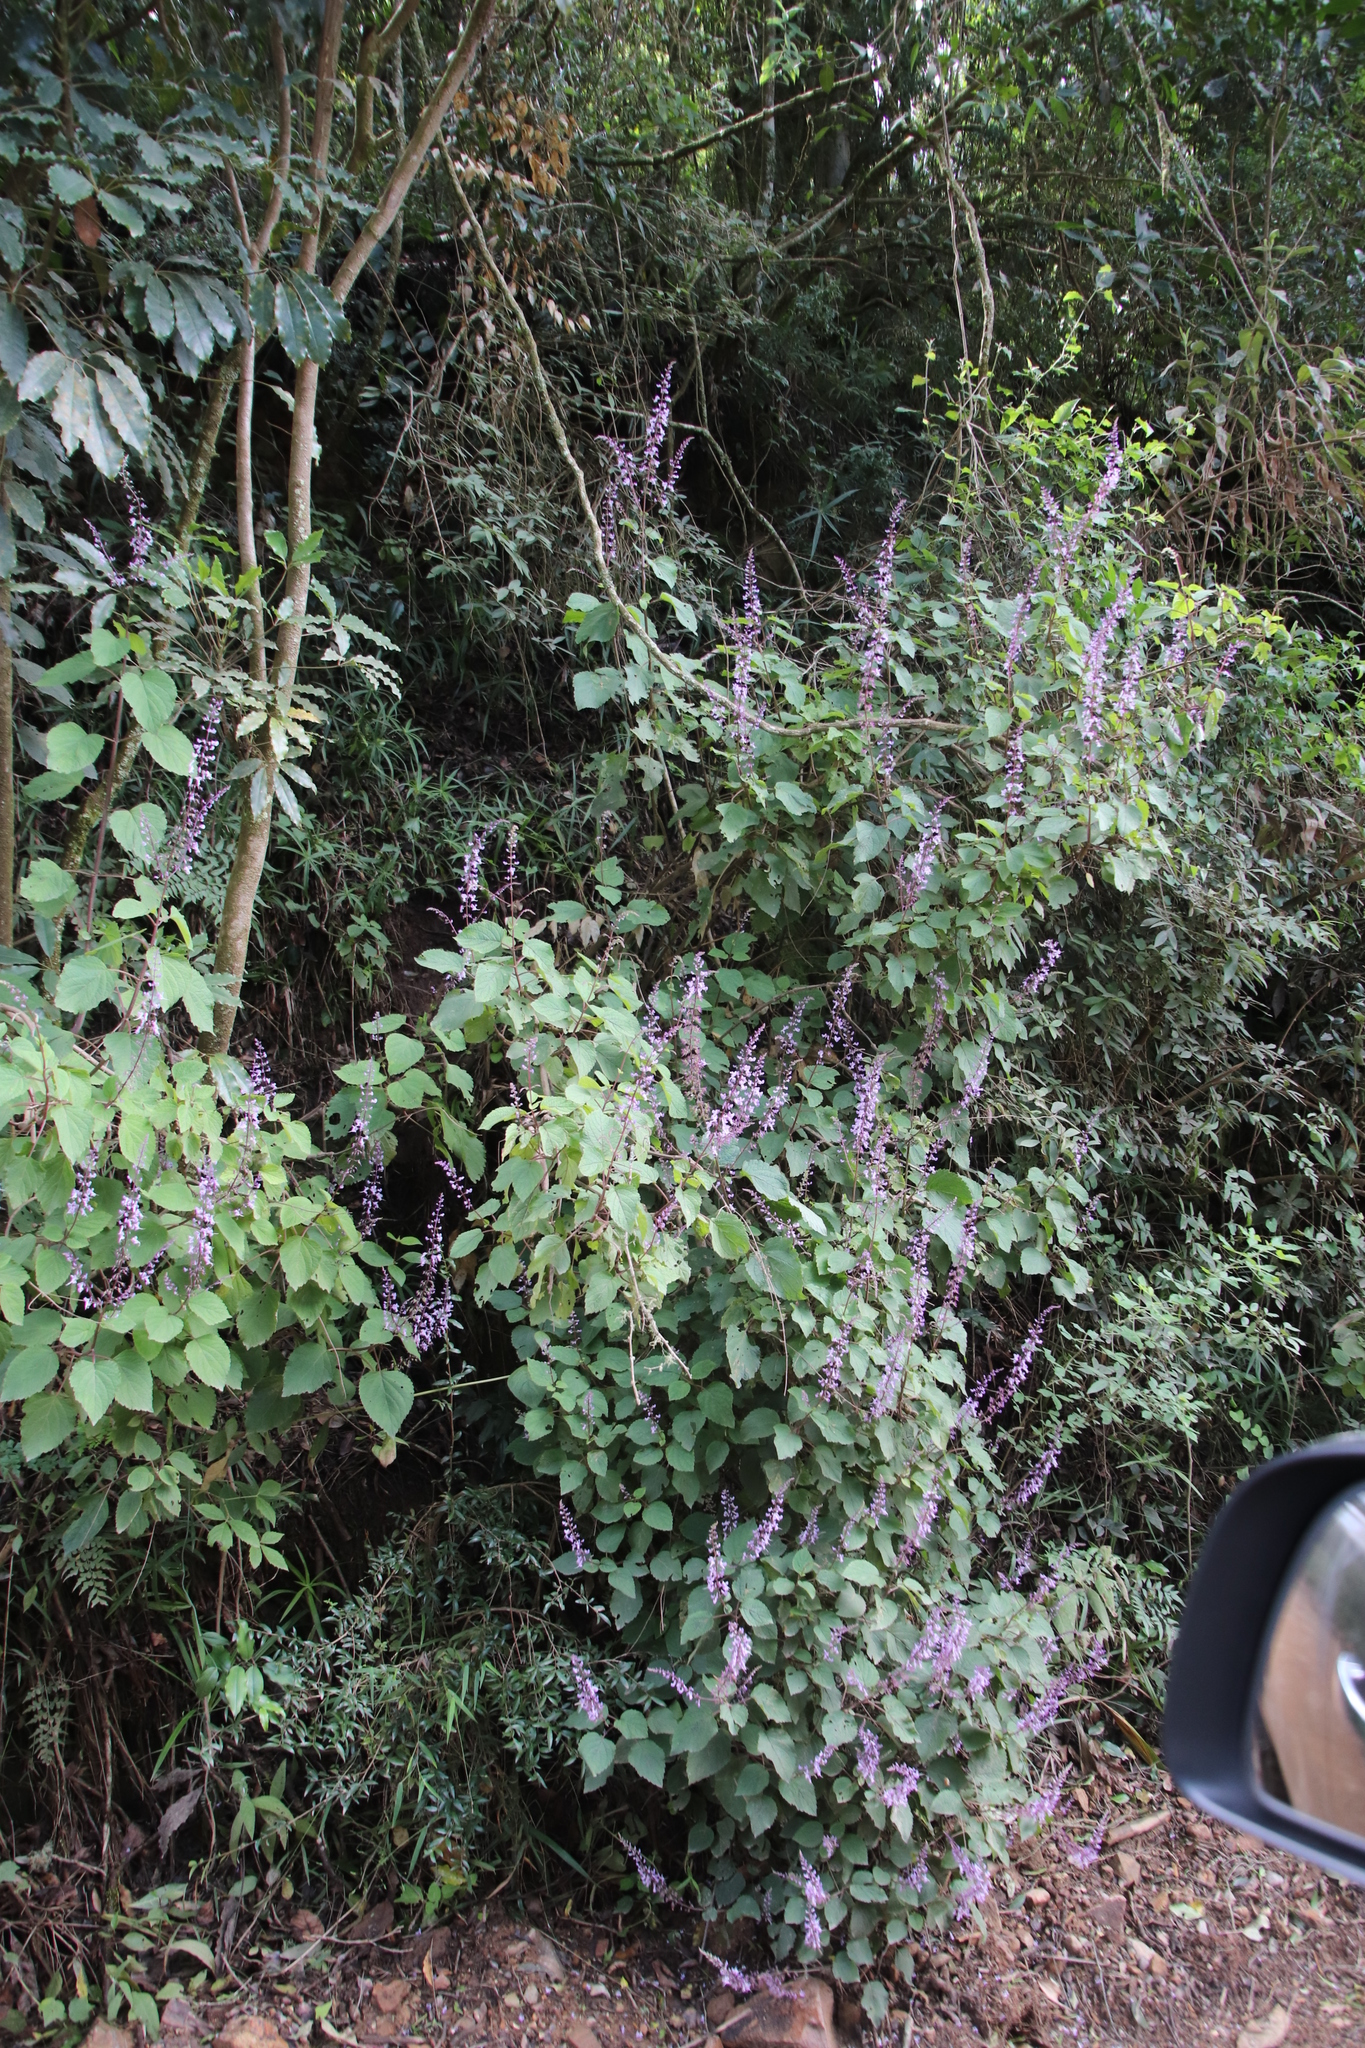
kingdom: Plantae
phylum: Tracheophyta
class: Magnoliopsida
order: Lamiales
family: Lamiaceae
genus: Plectranthus
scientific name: Plectranthus fruticosus
